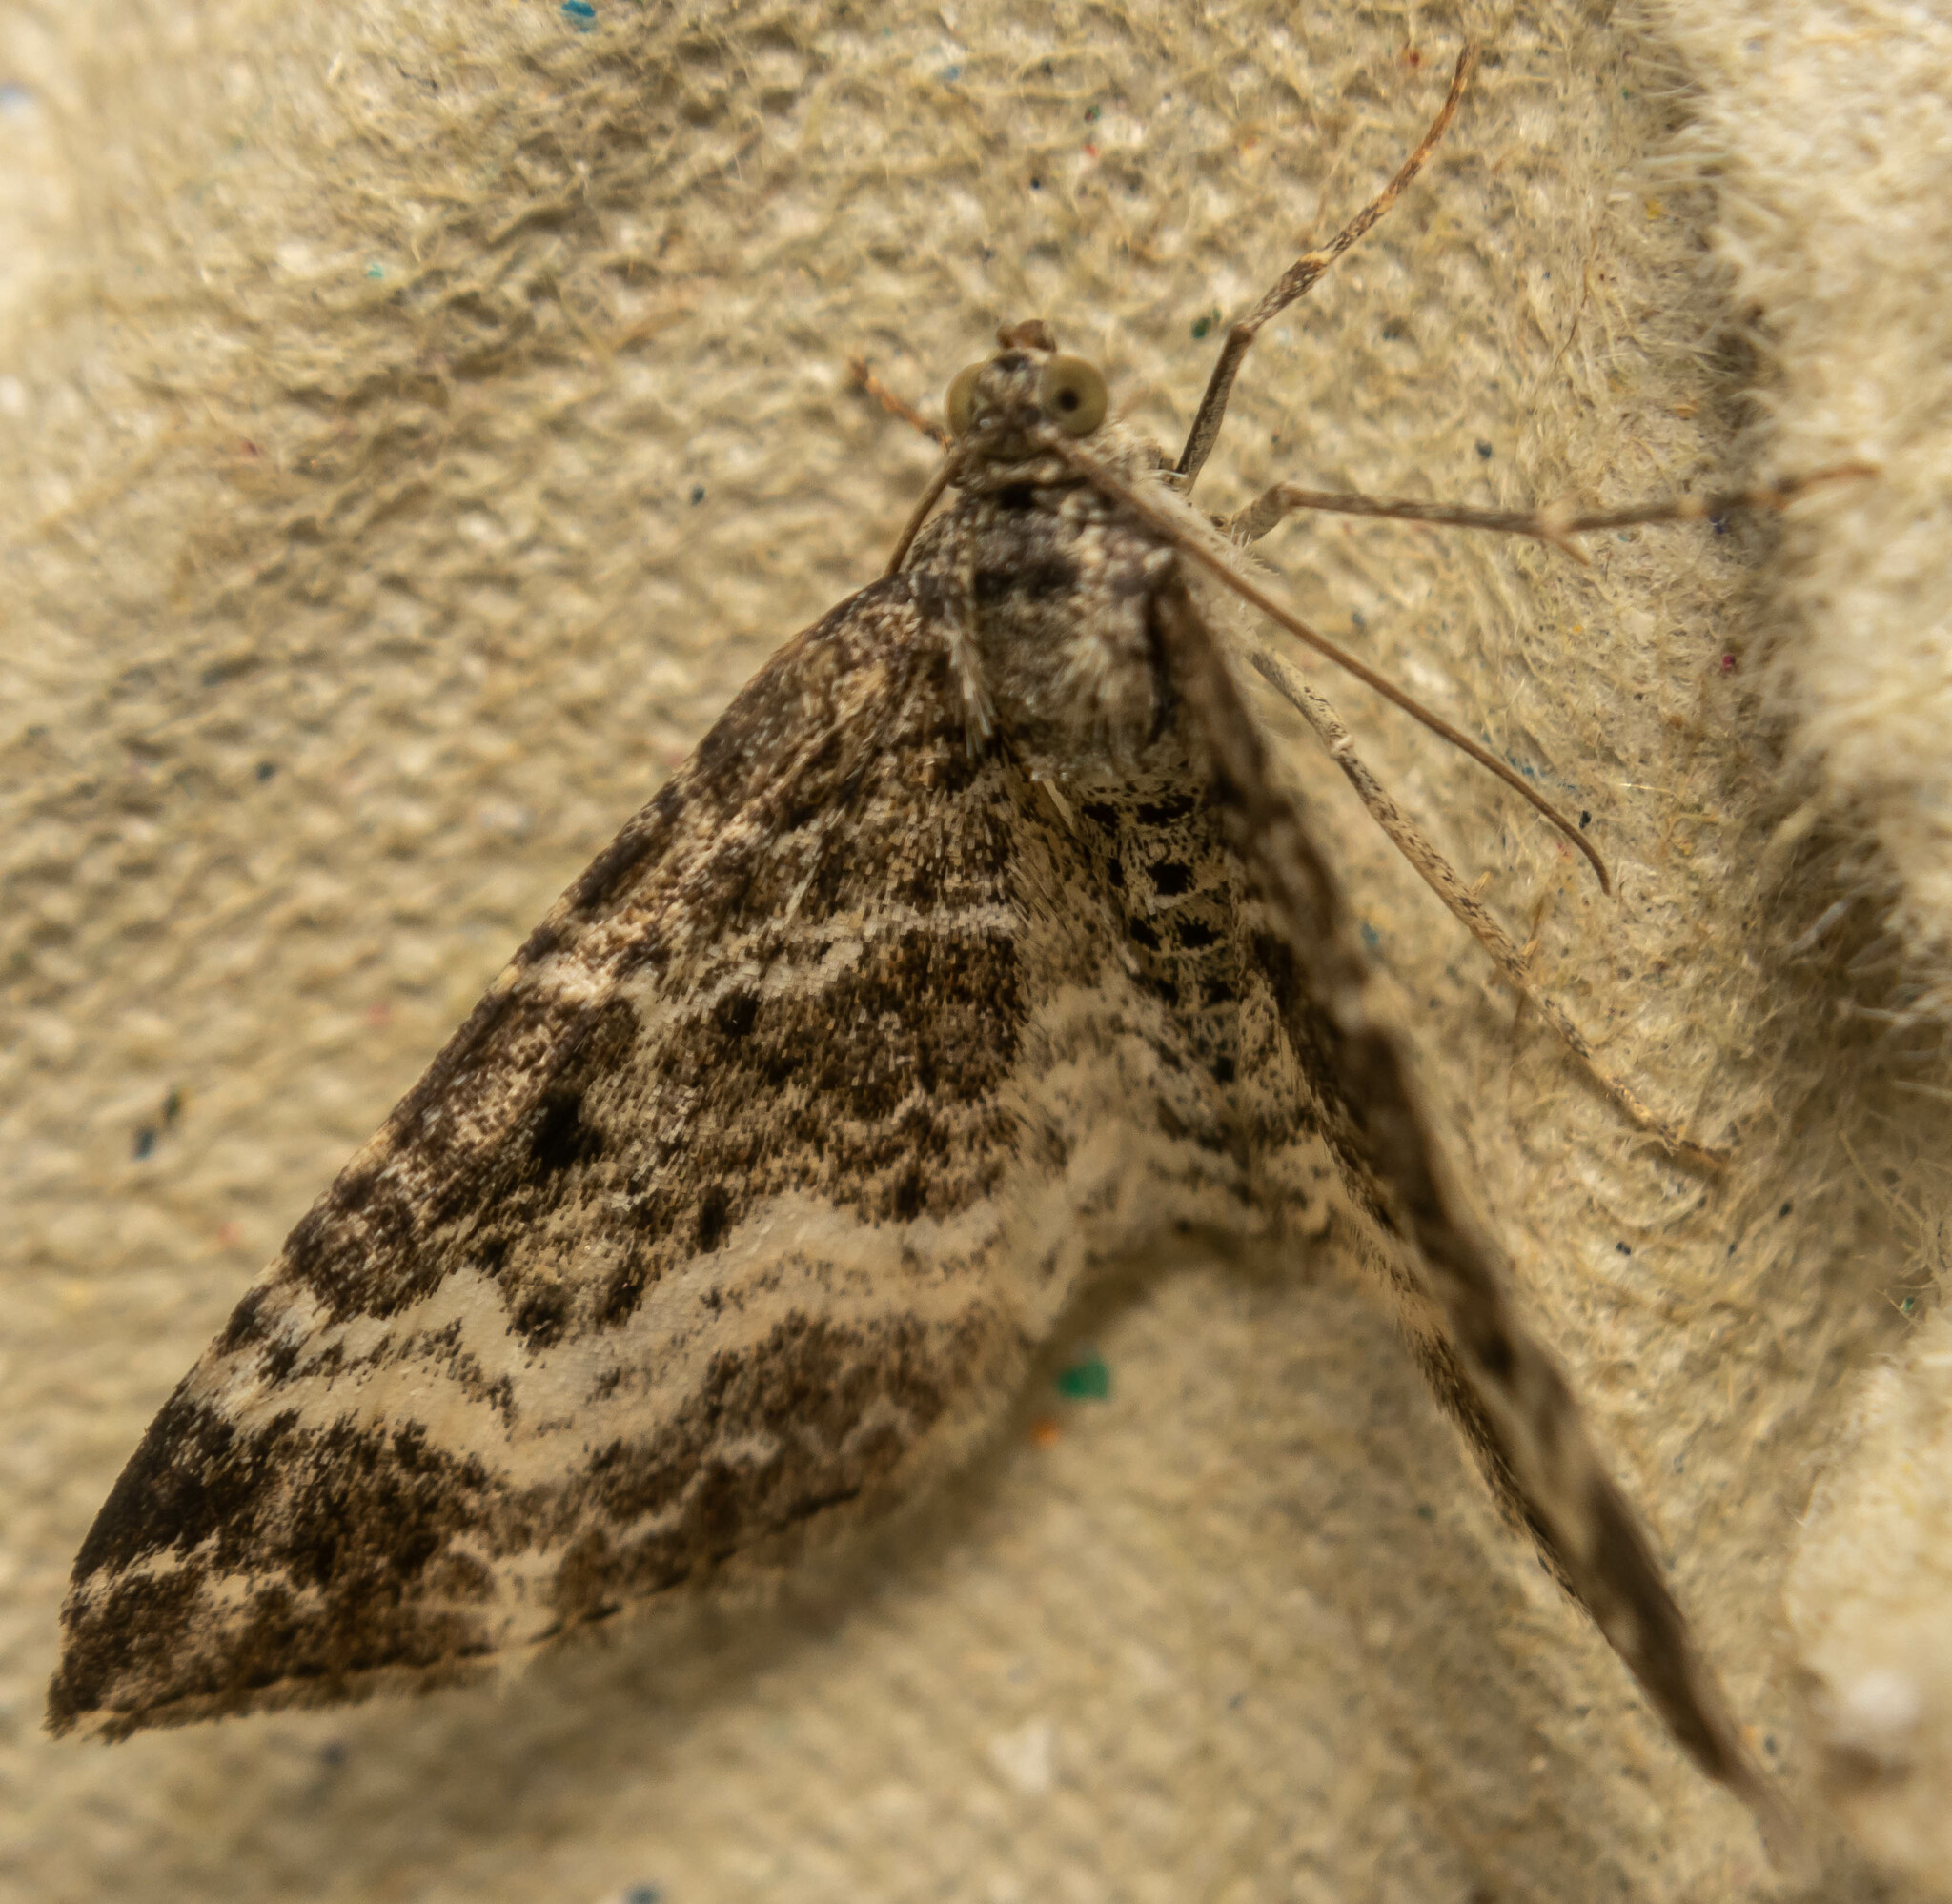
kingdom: Animalia
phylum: Arthropoda
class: Insecta
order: Lepidoptera
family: Geometridae
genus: Epirrhoe
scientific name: Epirrhoe alternata
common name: Common carpet
